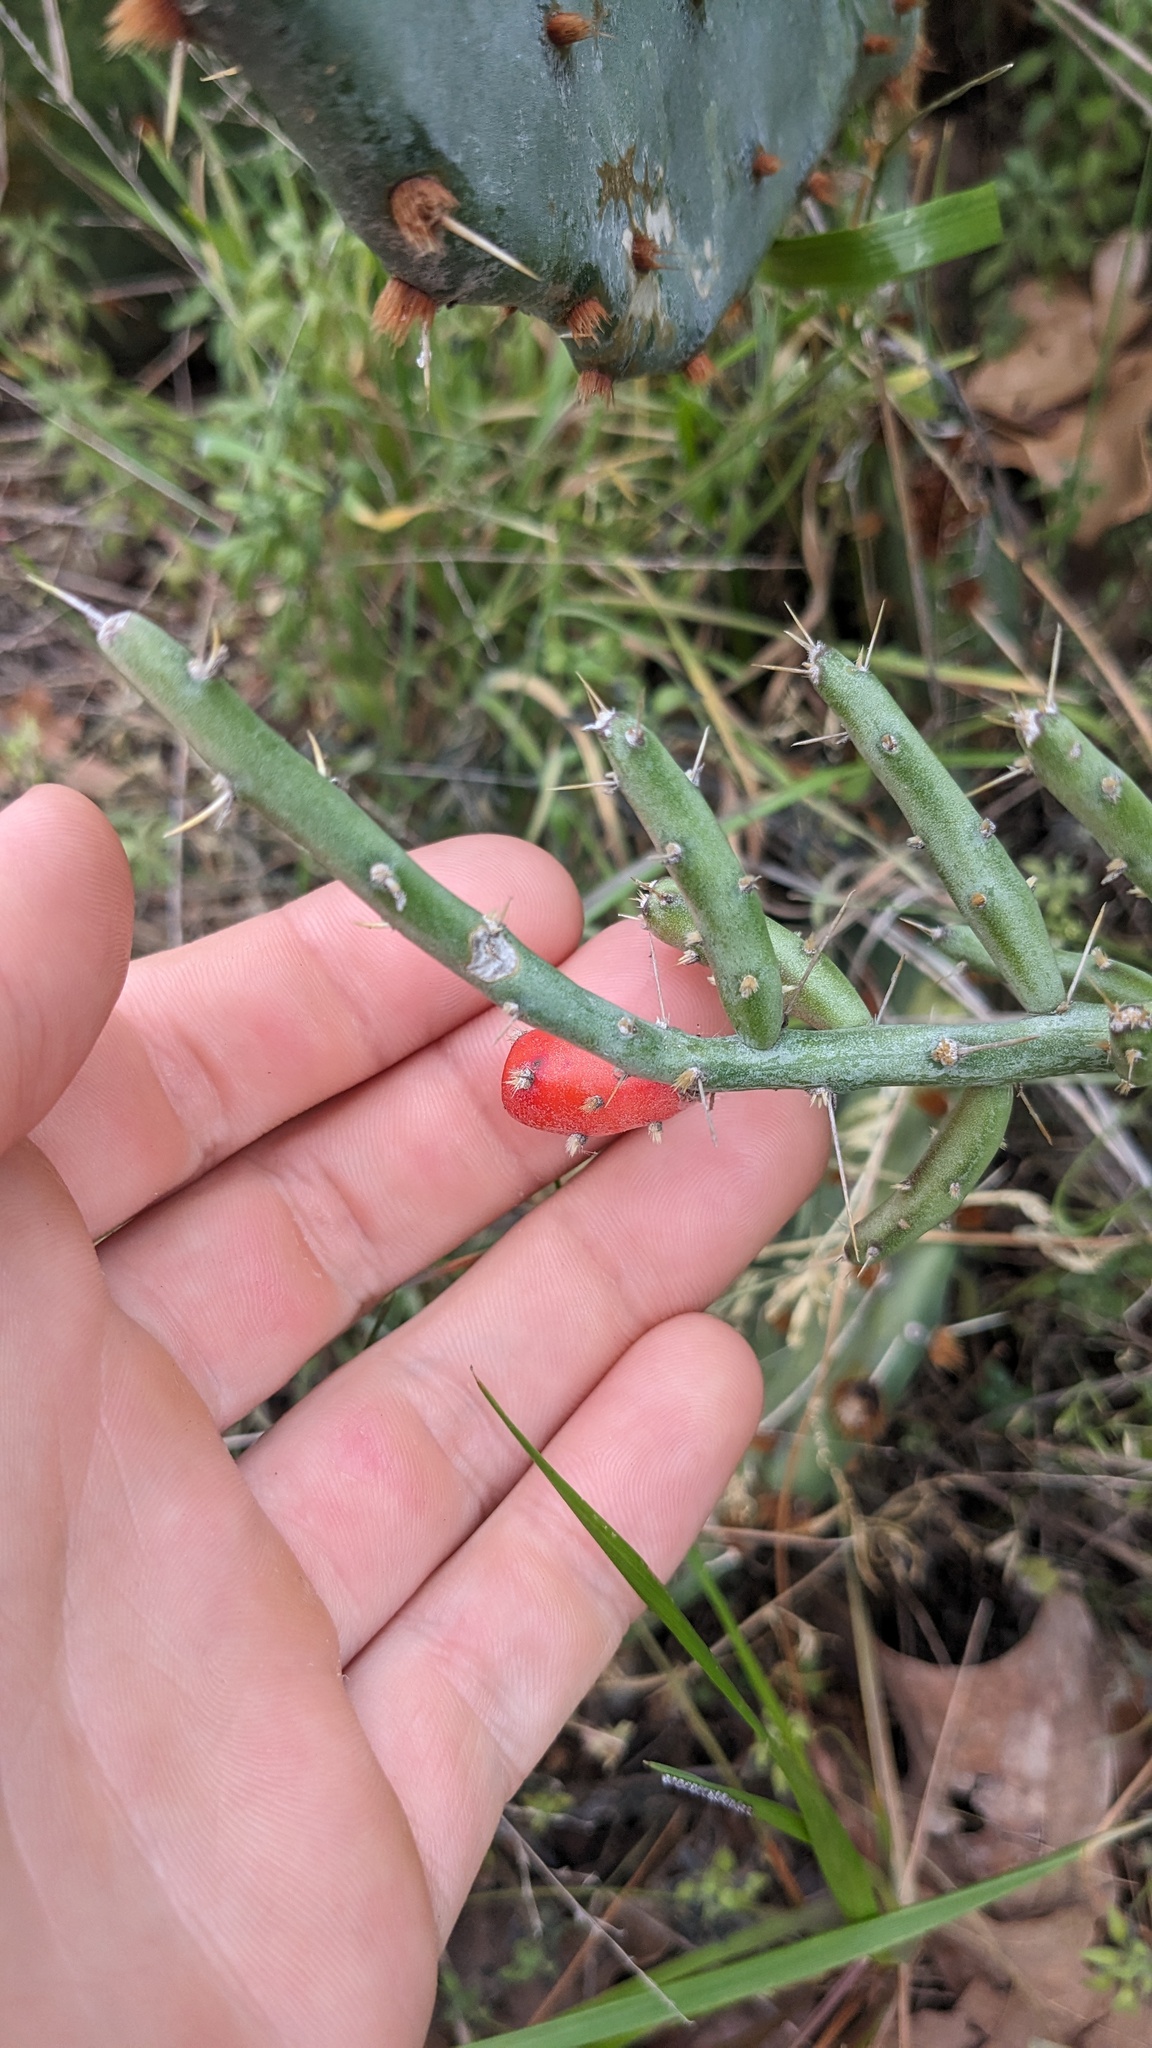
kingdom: Plantae
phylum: Tracheophyta
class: Magnoliopsida
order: Caryophyllales
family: Cactaceae
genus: Cylindropuntia
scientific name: Cylindropuntia leptocaulis
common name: Christmas cactus
